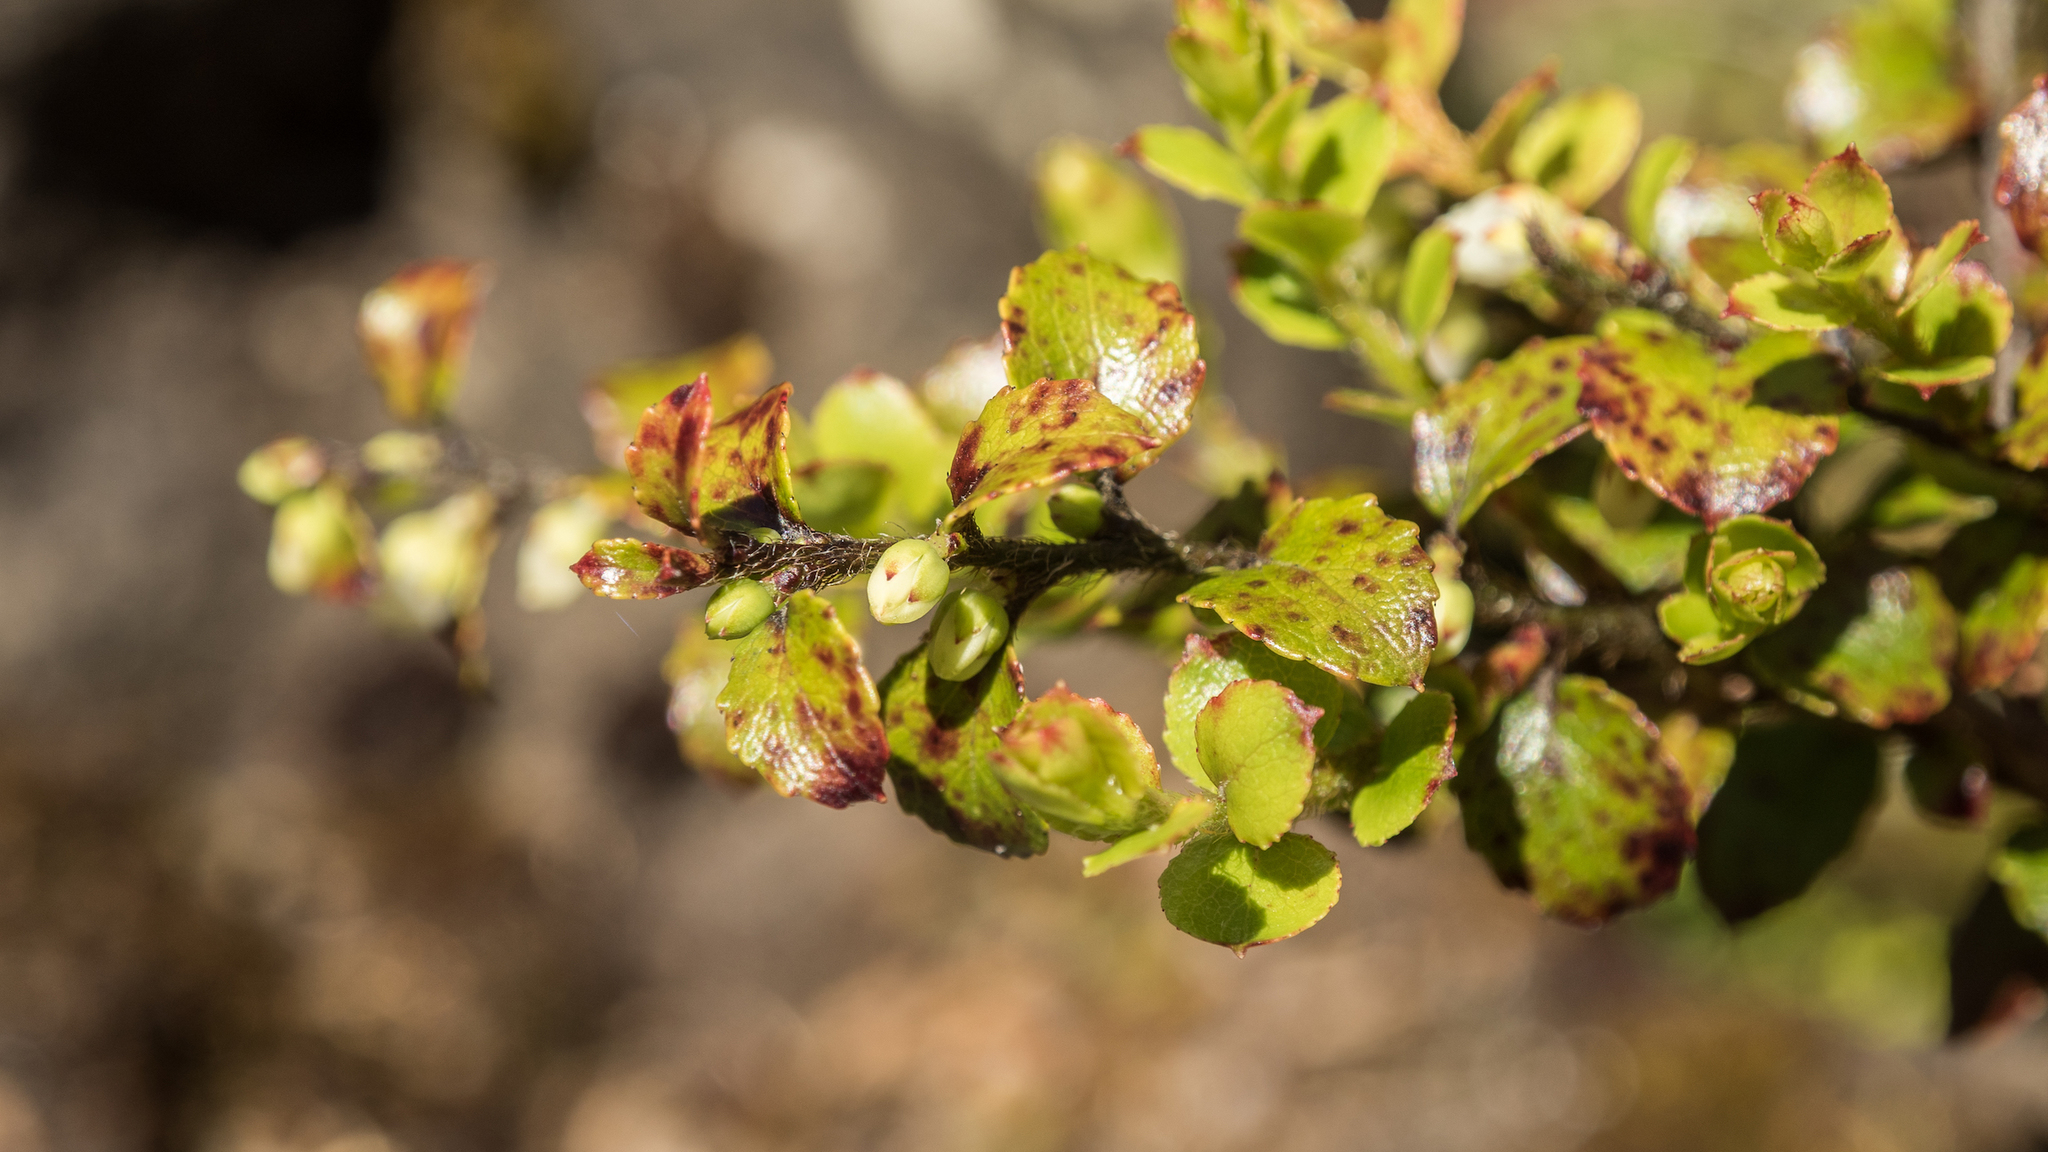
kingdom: Plantae
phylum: Tracheophyta
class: Magnoliopsida
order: Ericales
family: Ericaceae
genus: Gaultheria
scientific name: Gaultheria antipoda
